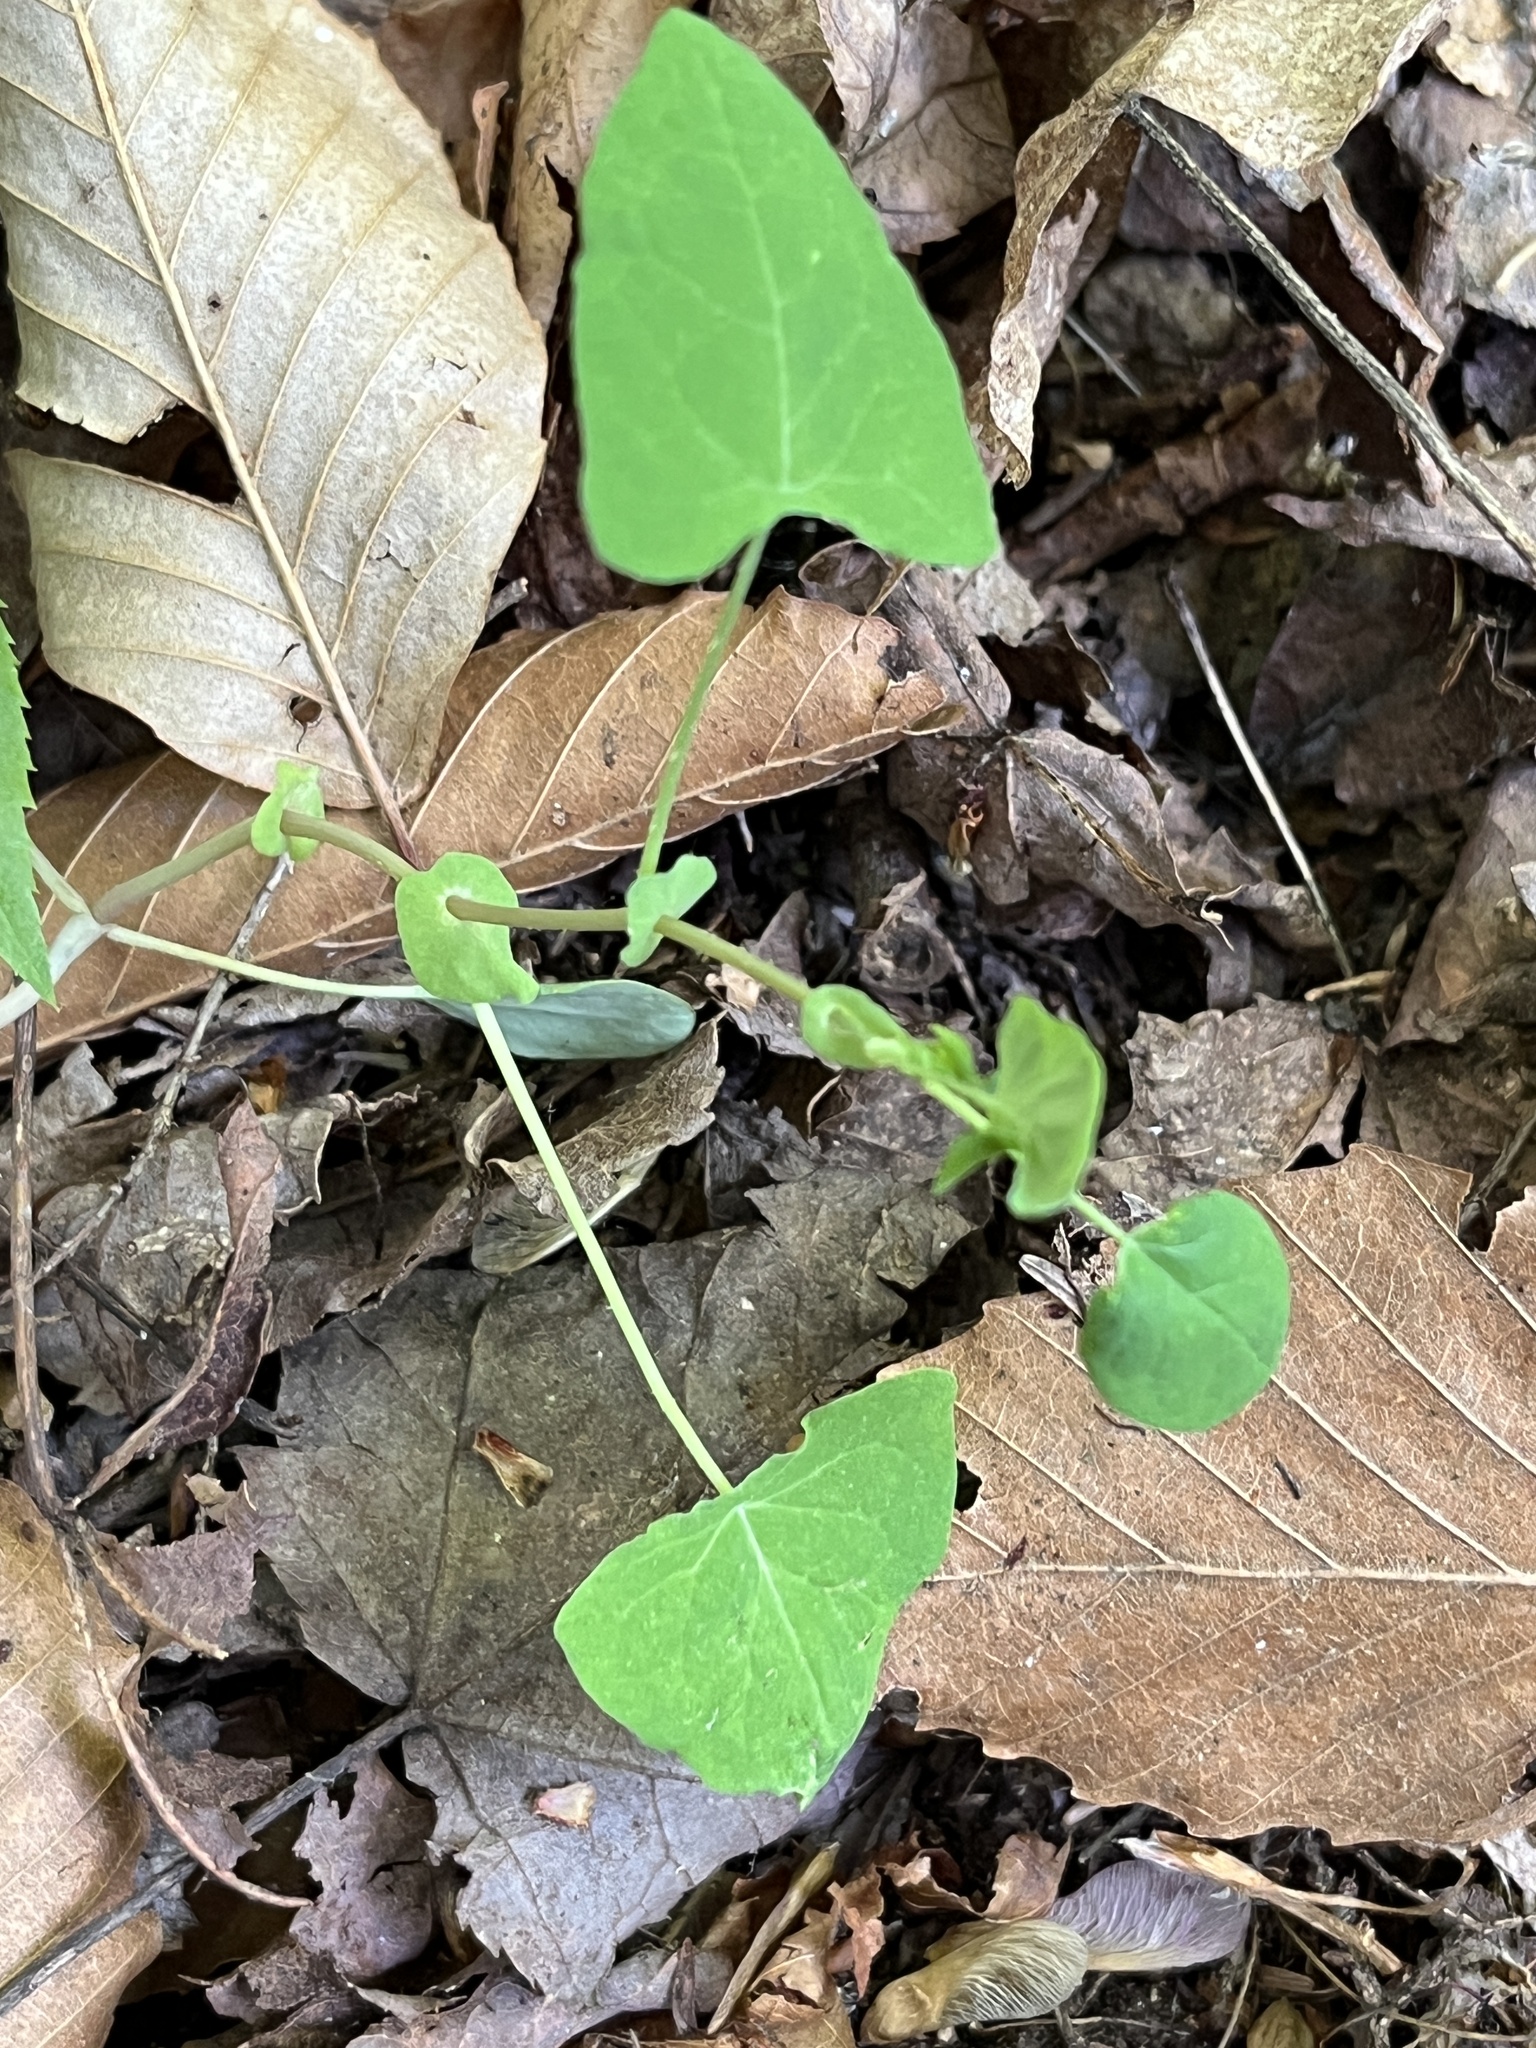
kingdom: Plantae
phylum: Tracheophyta
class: Magnoliopsida
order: Caryophyllales
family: Polygonaceae
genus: Persicaria
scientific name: Persicaria perfoliata
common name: Asiatic tearthumb
